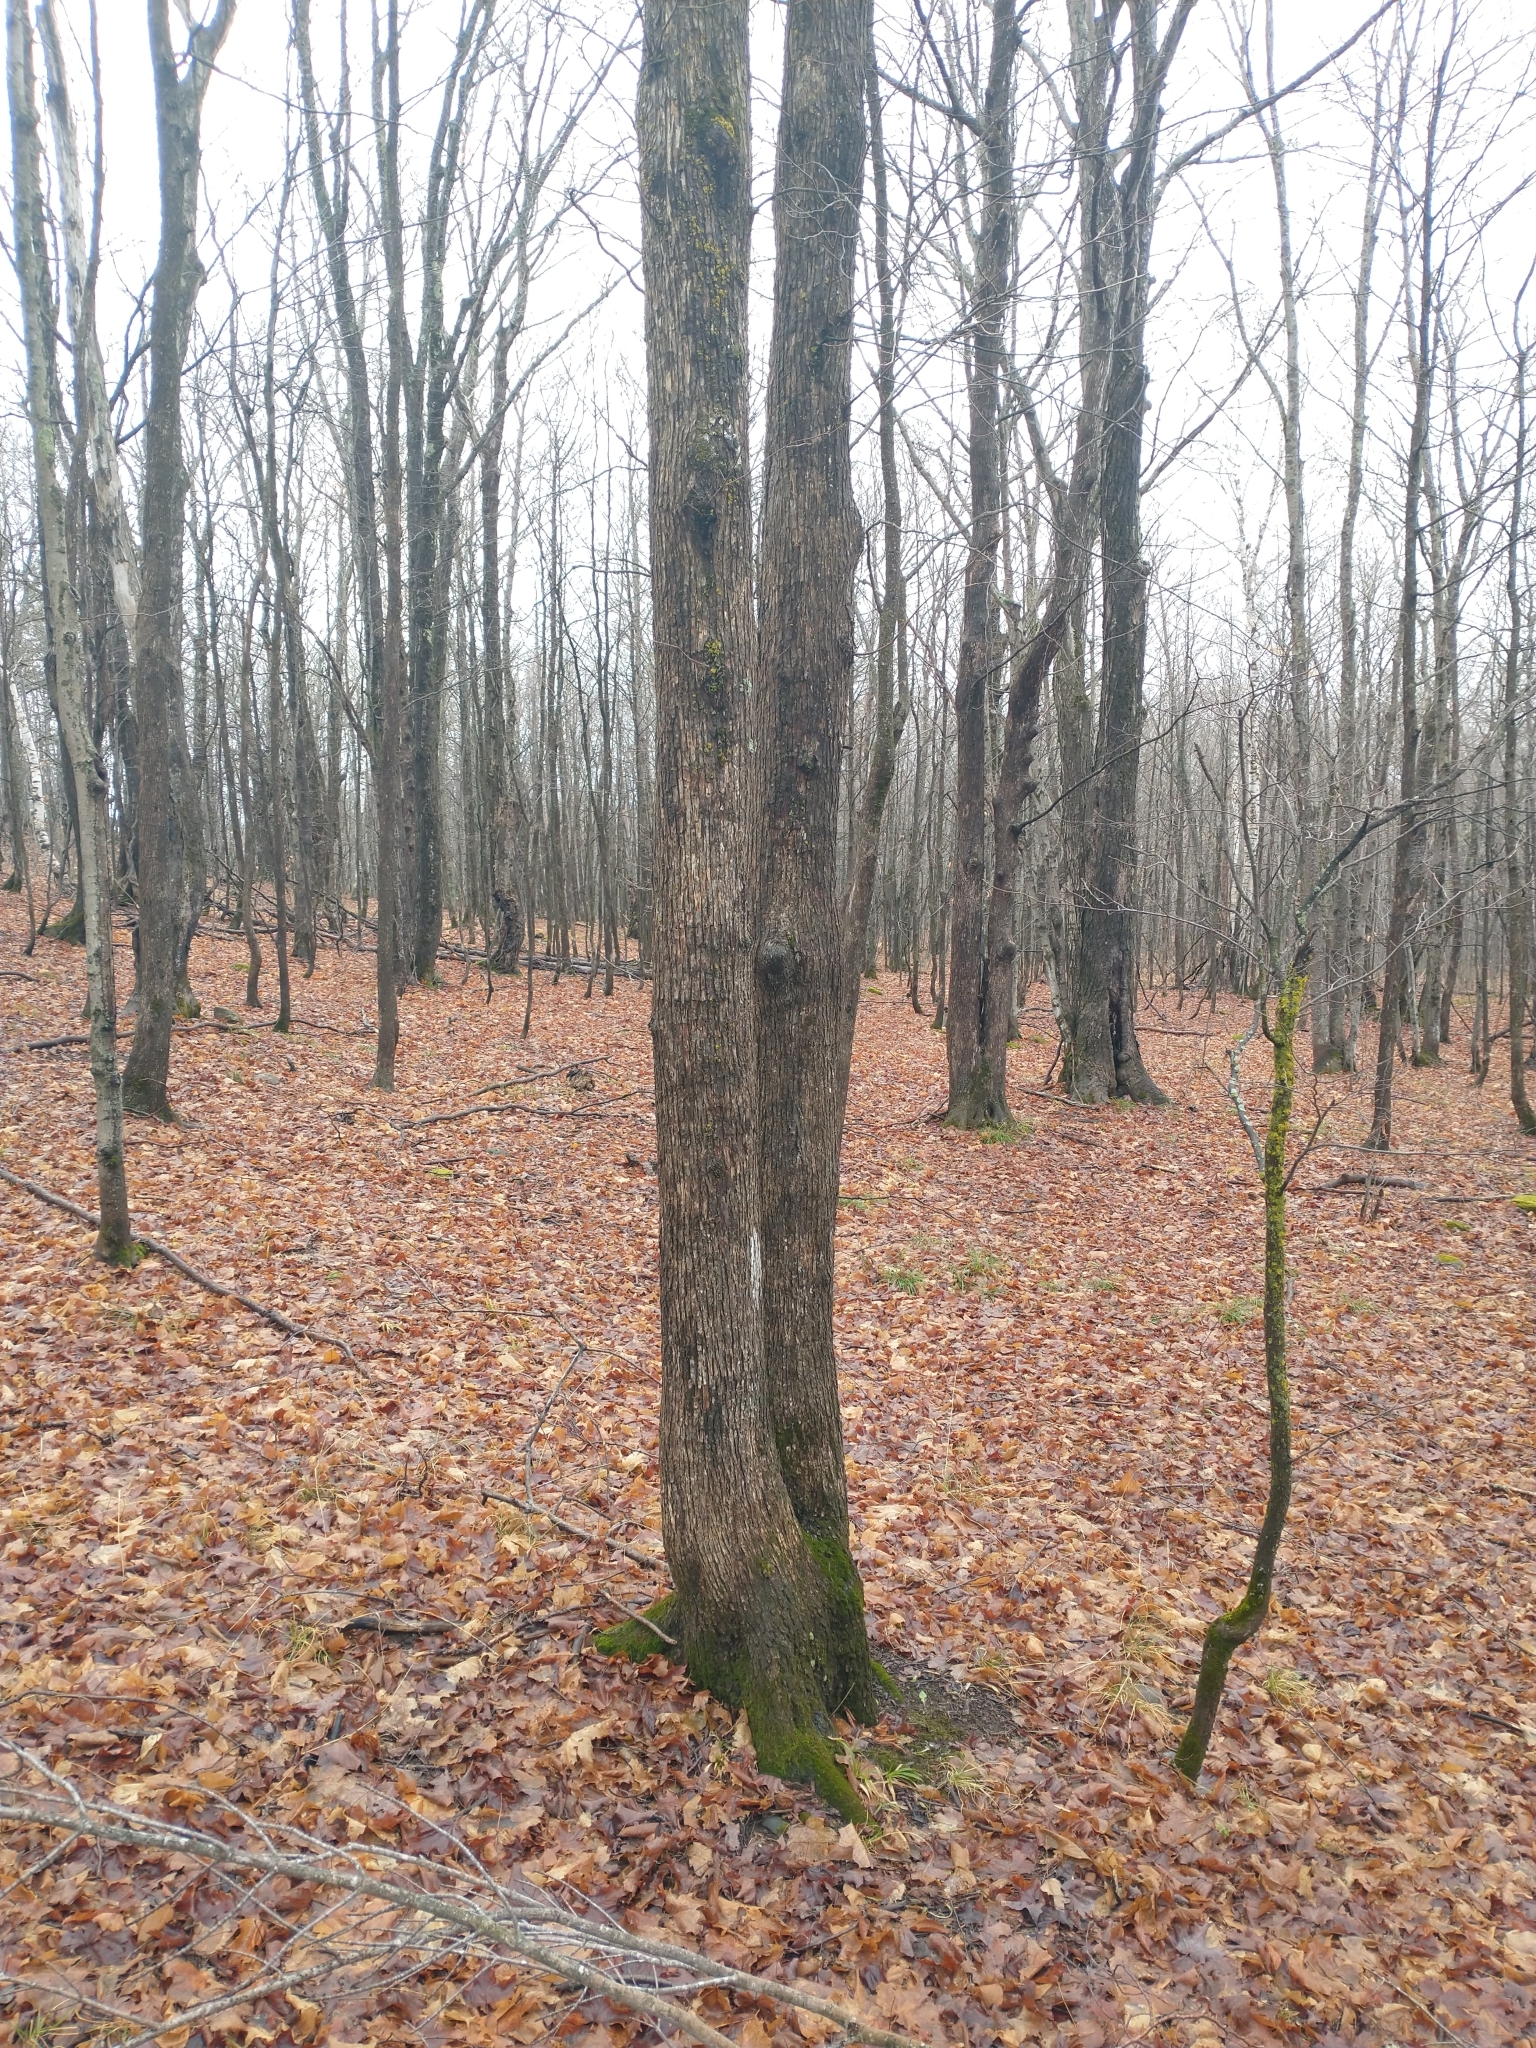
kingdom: Plantae
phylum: Tracheophyta
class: Magnoliopsida
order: Fagales
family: Betulaceae
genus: Ostrya
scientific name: Ostrya virginiana
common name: Ironwood
